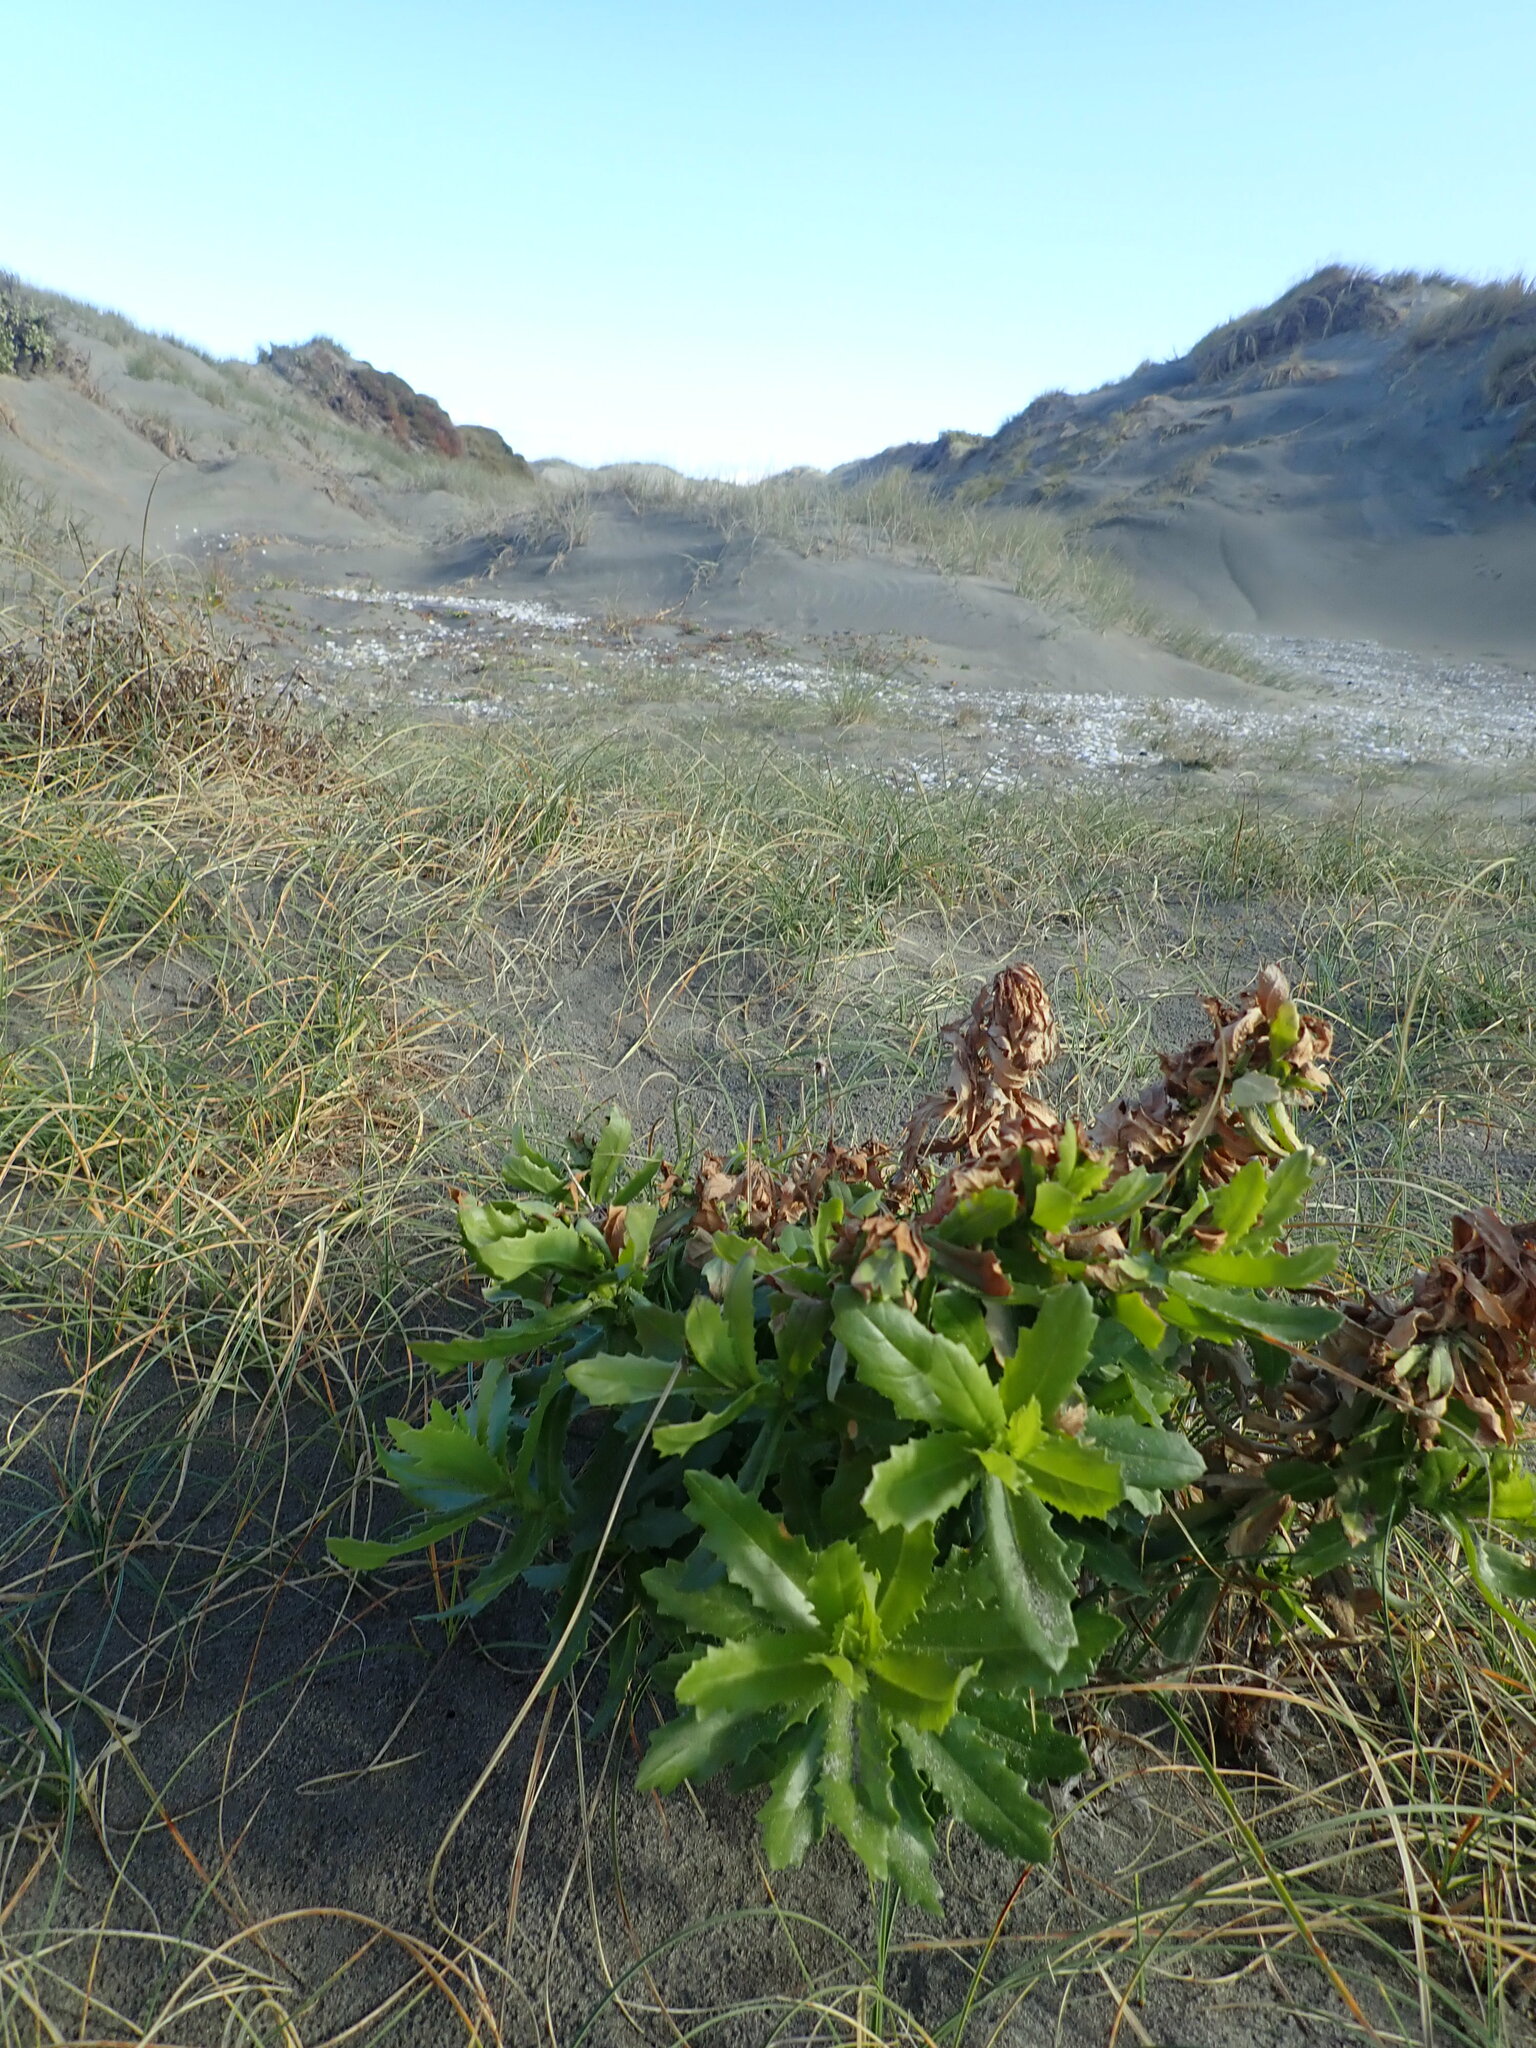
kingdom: Plantae
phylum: Tracheophyta
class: Magnoliopsida
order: Asterales
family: Asteraceae
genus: Senecio
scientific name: Senecio glastifolius
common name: Woad-leaved ragwort
